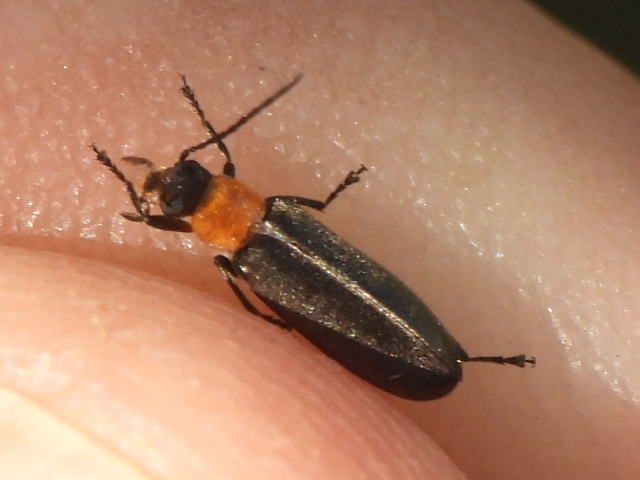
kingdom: Animalia
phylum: Arthropoda
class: Insecta
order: Coleoptera
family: Melandryidae
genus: Osphya
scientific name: Osphya varians
